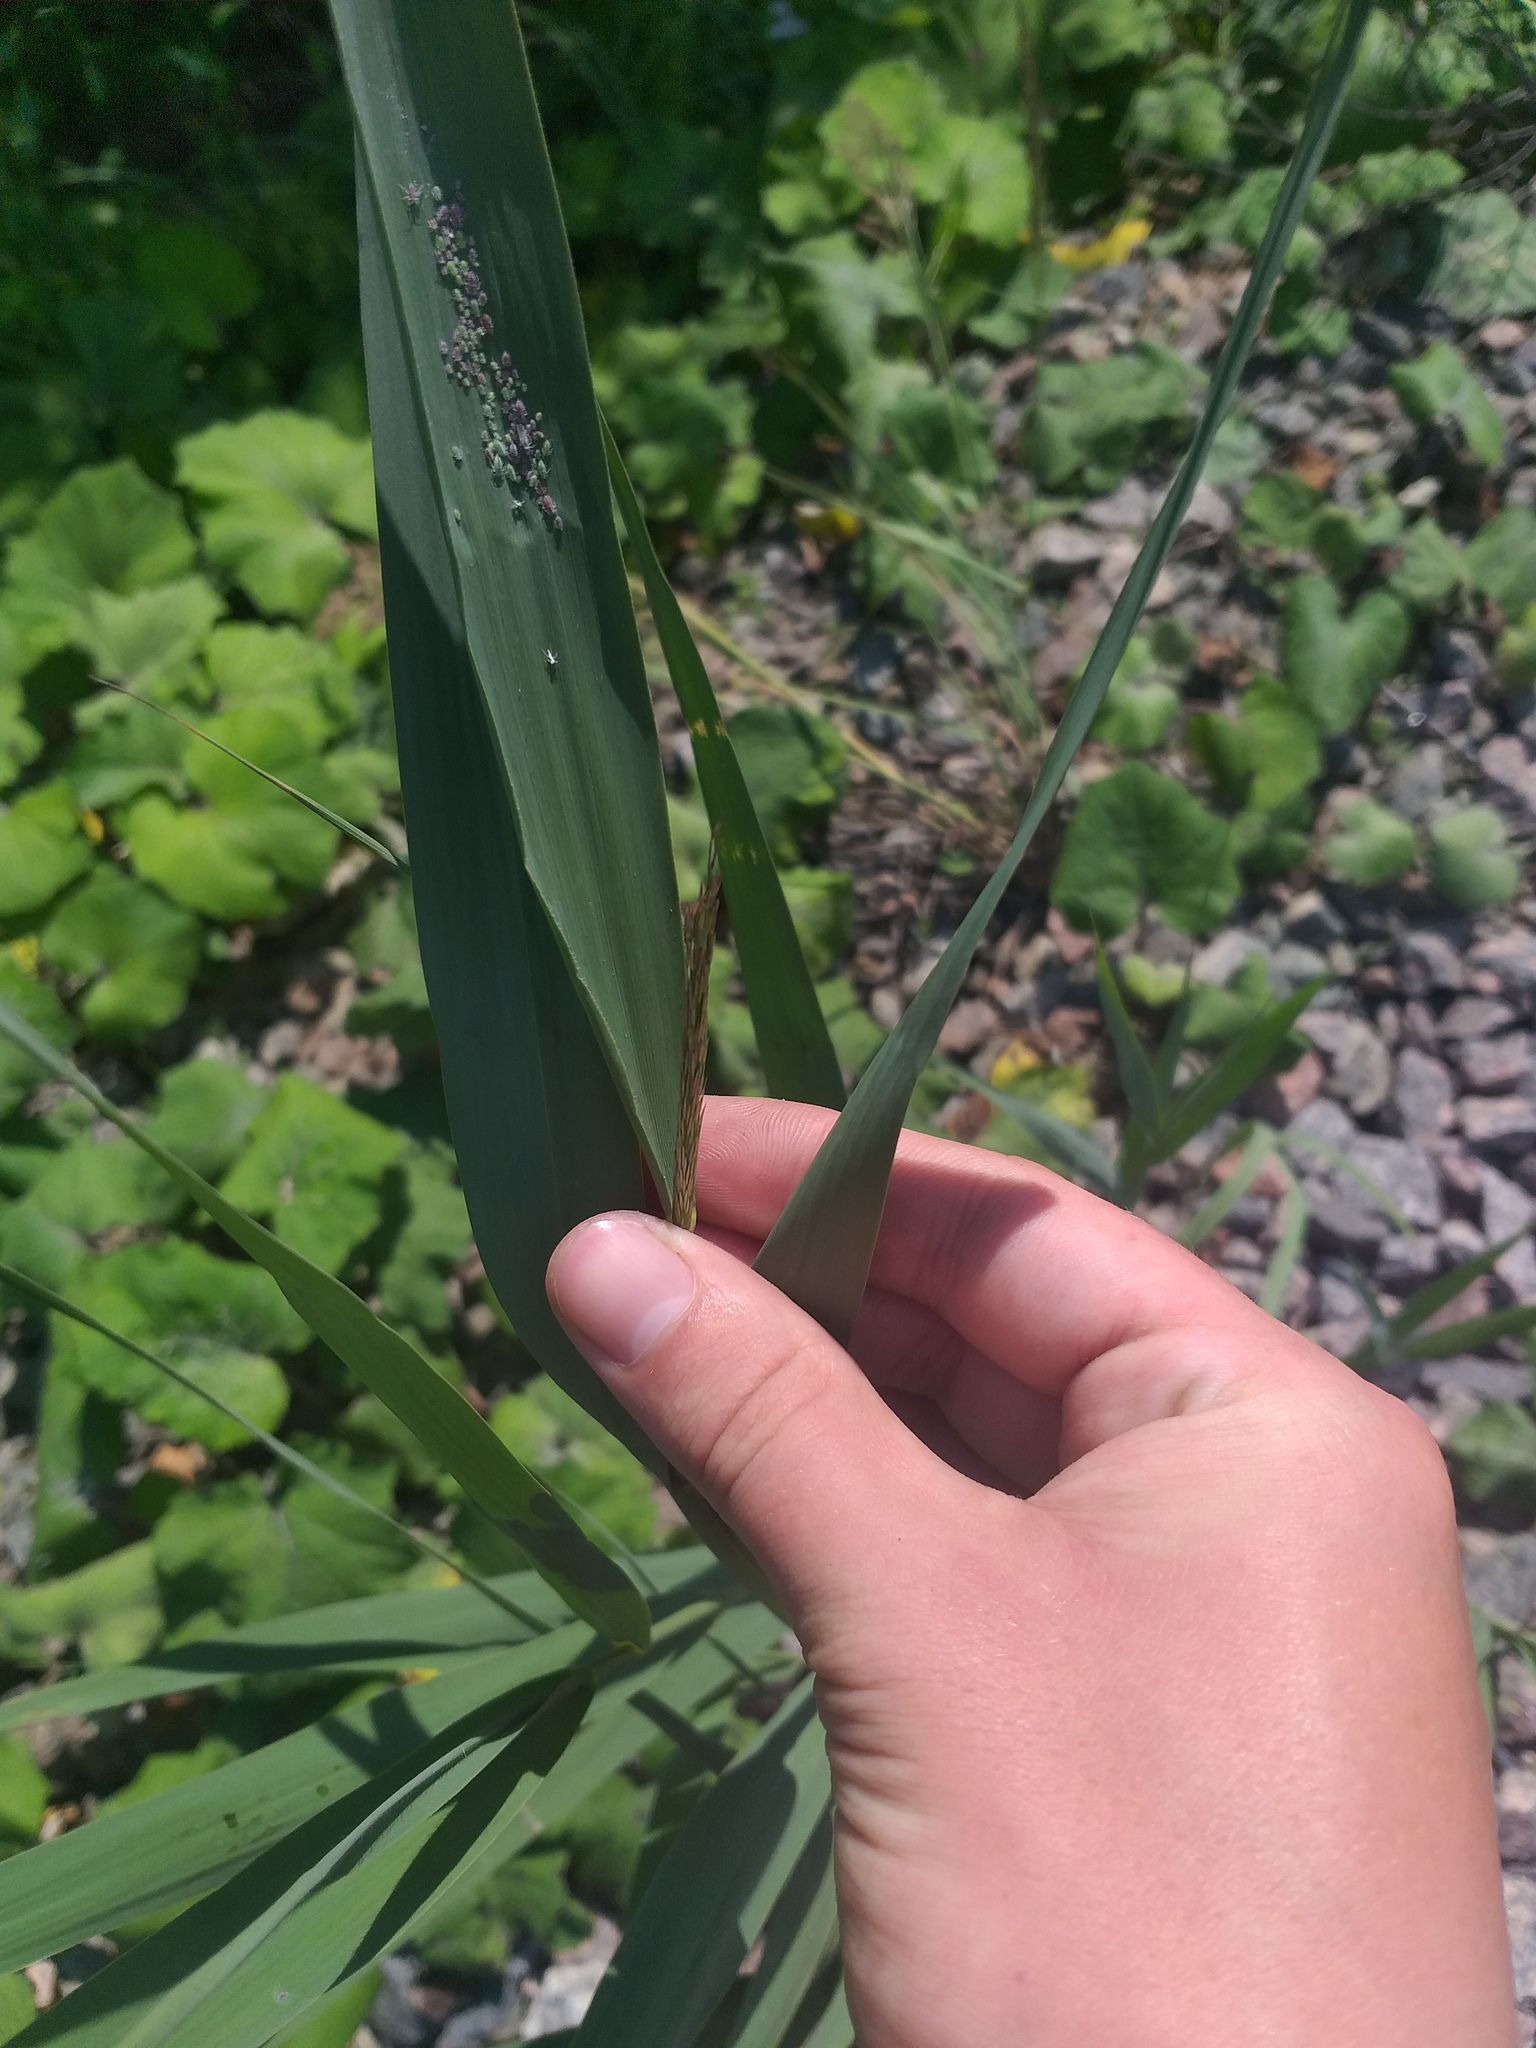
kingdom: Plantae
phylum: Tracheophyta
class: Liliopsida
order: Poales
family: Poaceae
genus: Phragmites
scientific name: Phragmites australis
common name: Common reed
